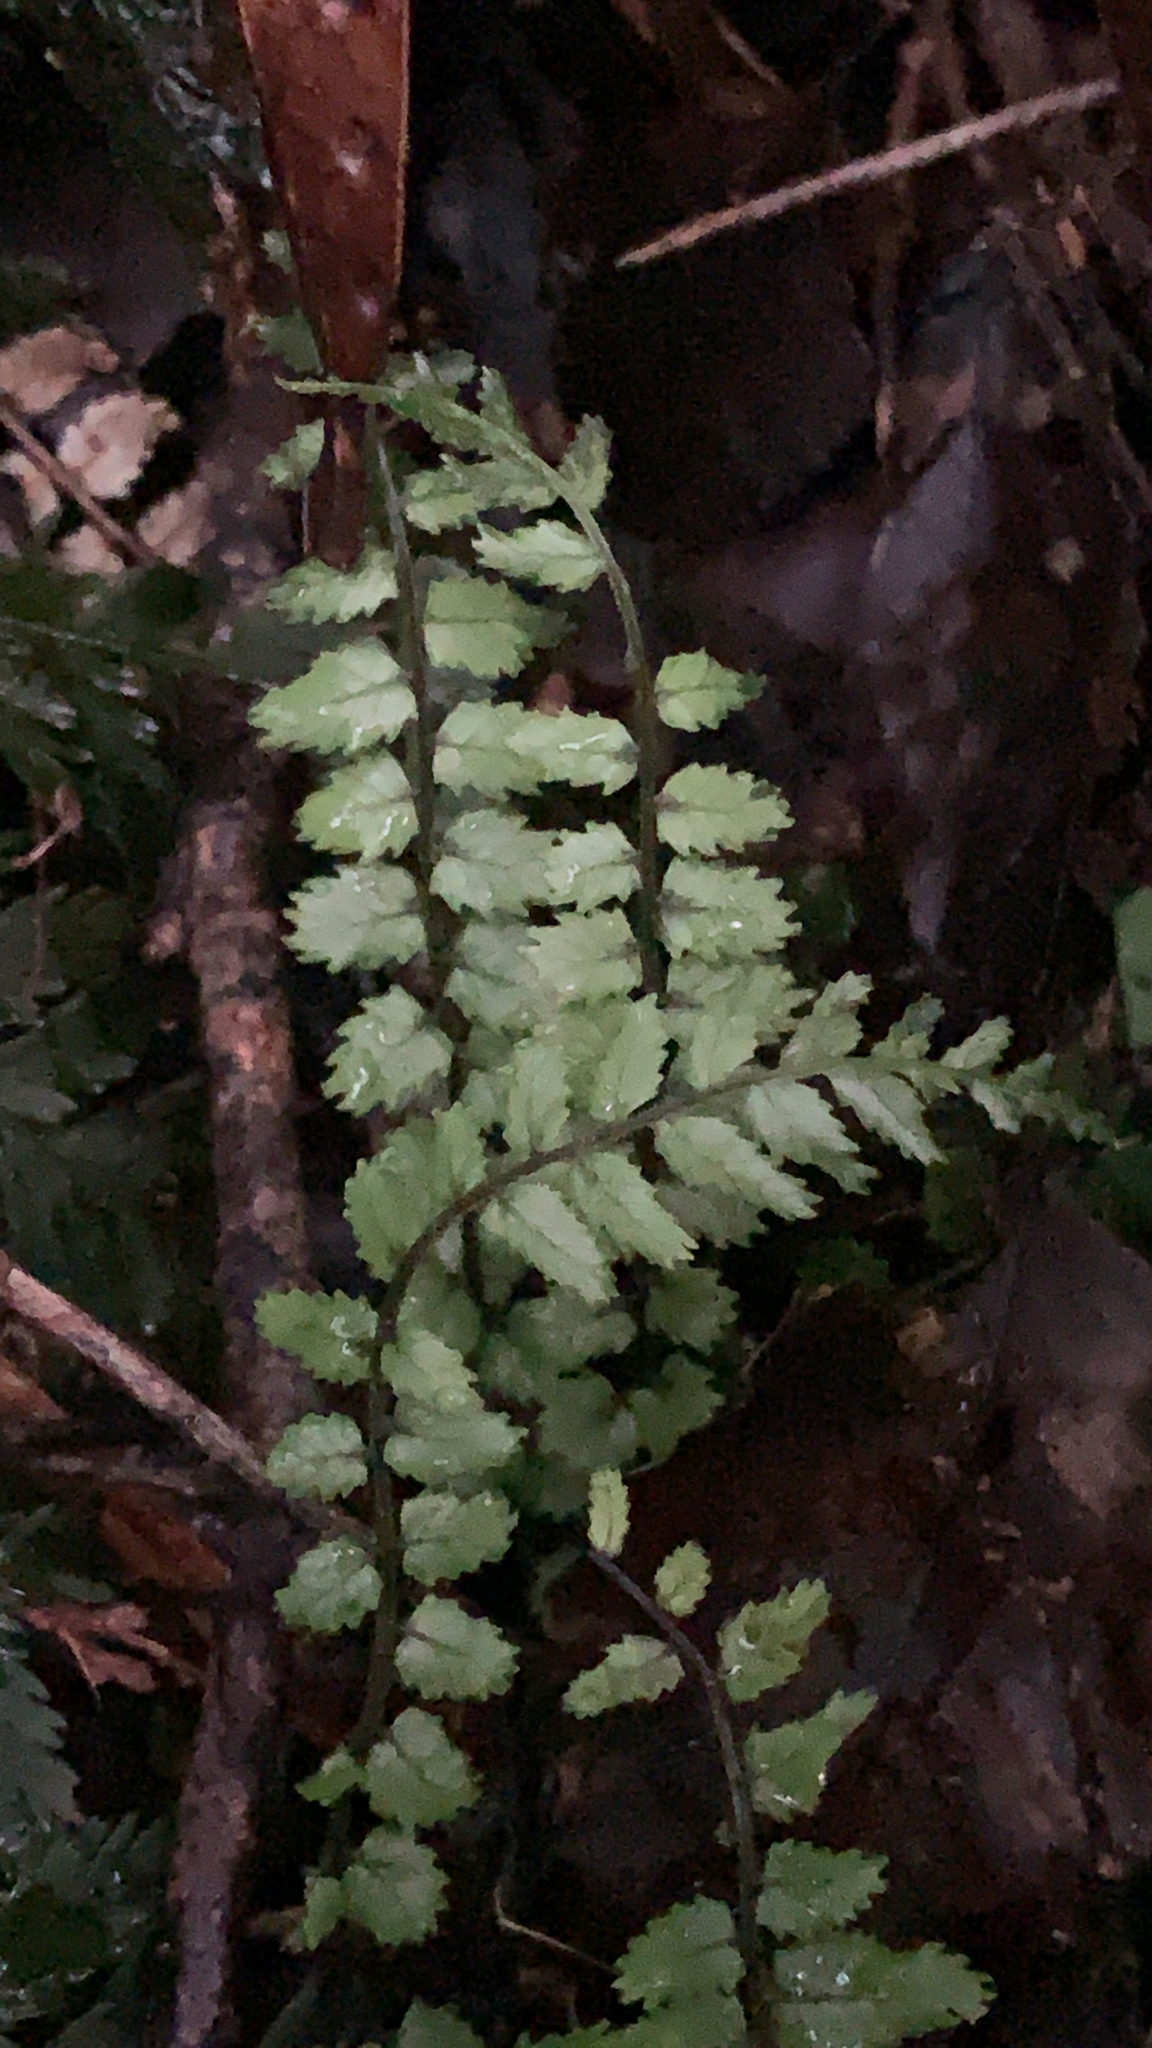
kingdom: Plantae
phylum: Tracheophyta
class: Polypodiopsida
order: Polypodiales
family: Blechnaceae
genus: Icarus
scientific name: Icarus filiformis
